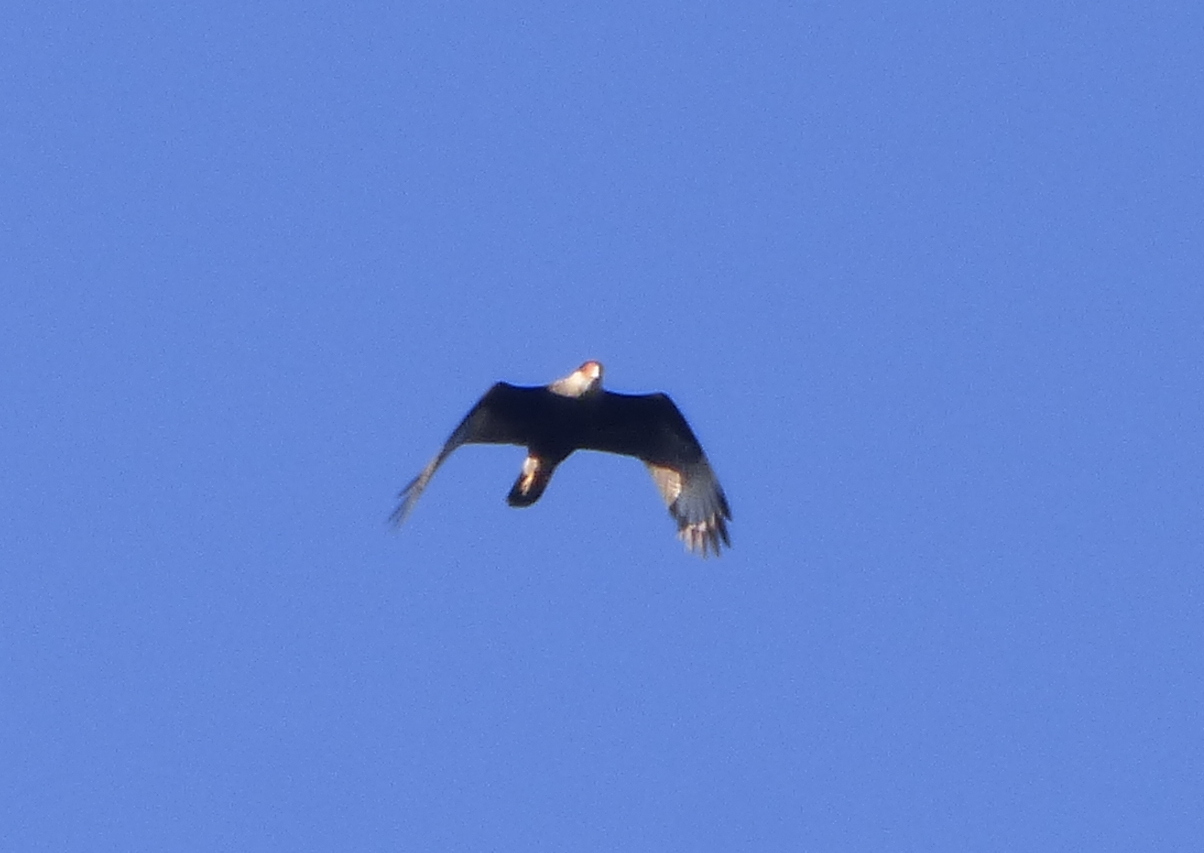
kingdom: Animalia
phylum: Chordata
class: Aves
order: Falconiformes
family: Falconidae
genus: Caracara
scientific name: Caracara plancus
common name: Southern caracara
